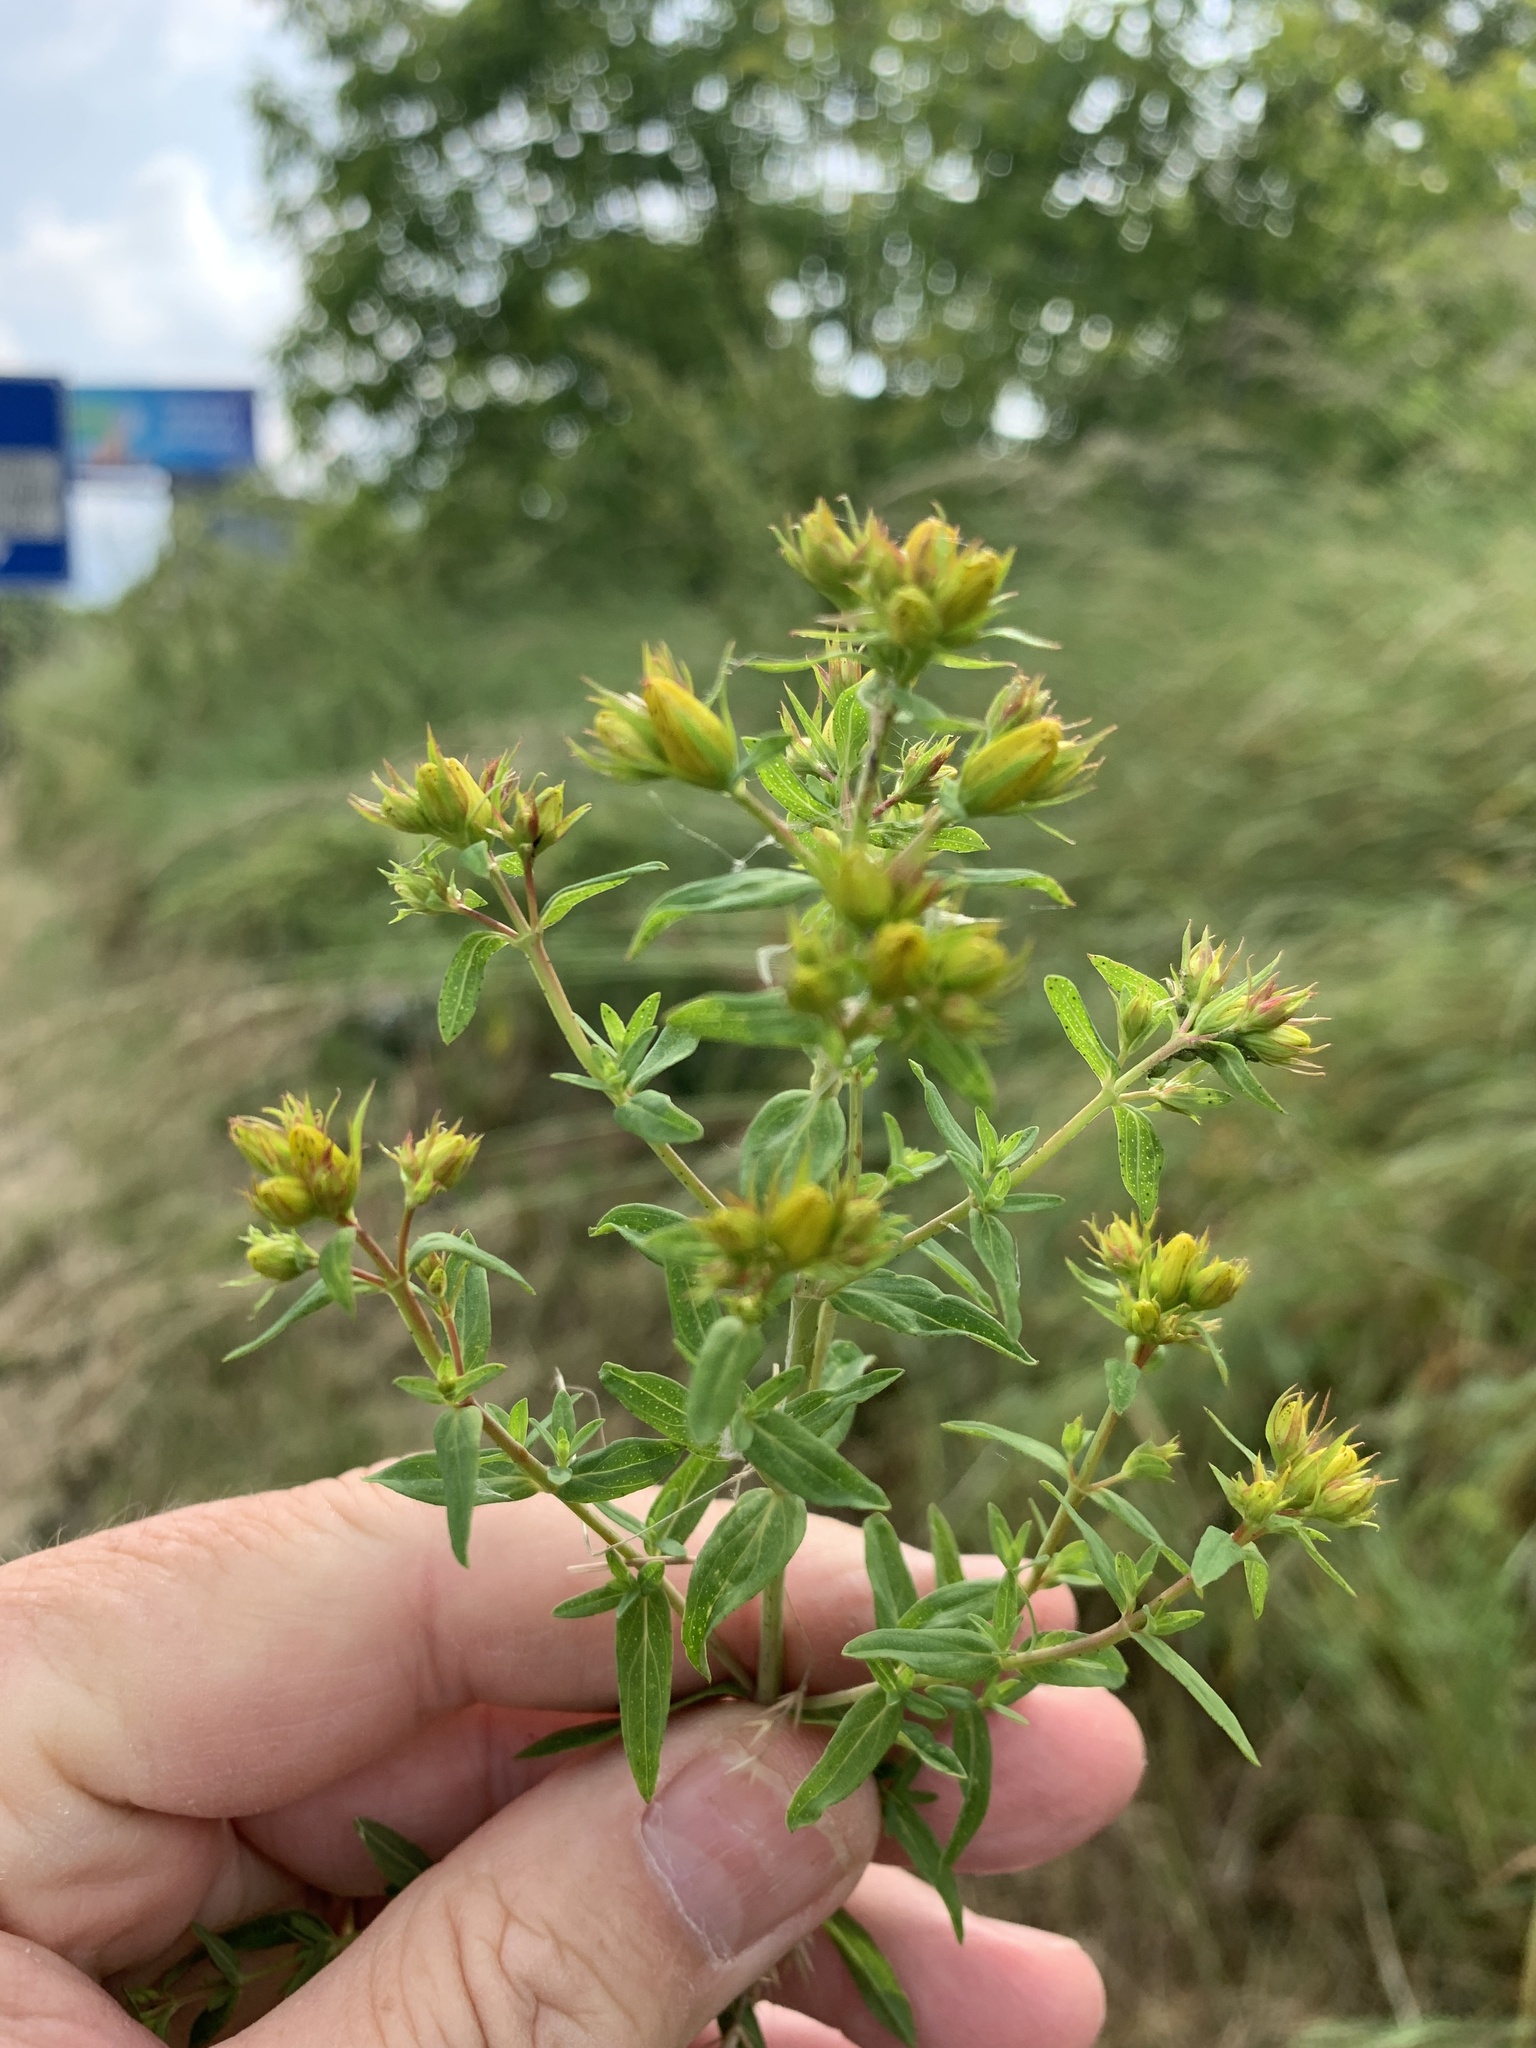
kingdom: Plantae
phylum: Tracheophyta
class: Magnoliopsida
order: Malpighiales
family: Hypericaceae
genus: Hypericum
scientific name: Hypericum perforatum
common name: Common st. johnswort
